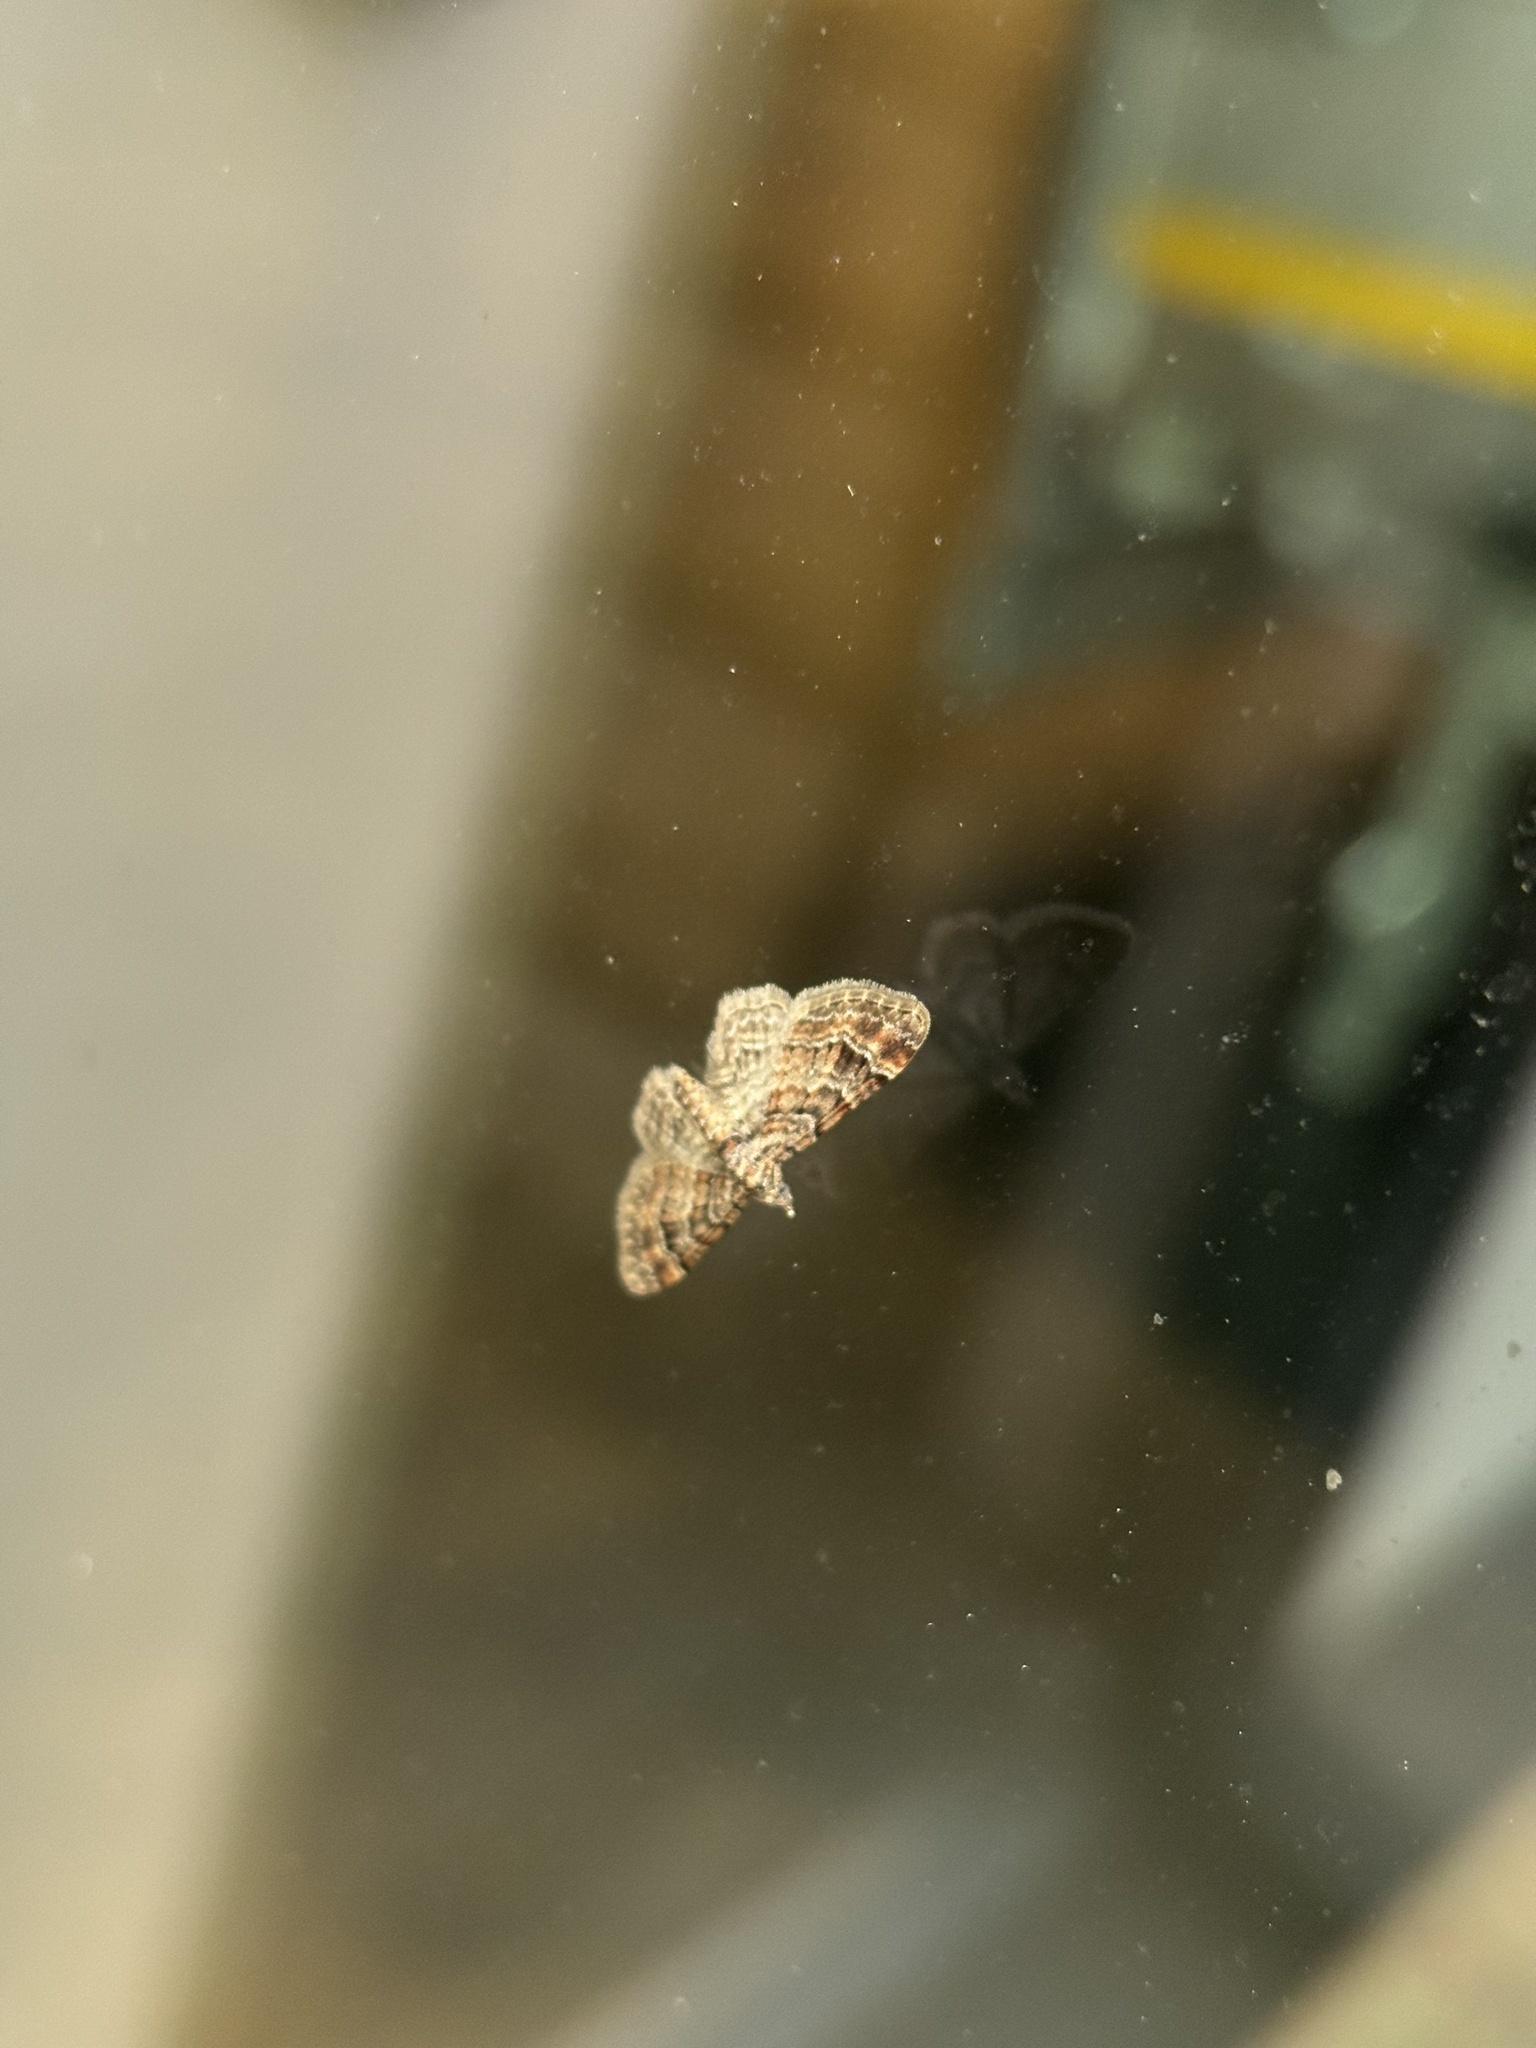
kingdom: Animalia
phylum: Arthropoda
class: Insecta
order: Lepidoptera
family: Geometridae
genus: Gymnoscelis
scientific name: Gymnoscelis rufifasciata
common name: Double-striped pug
